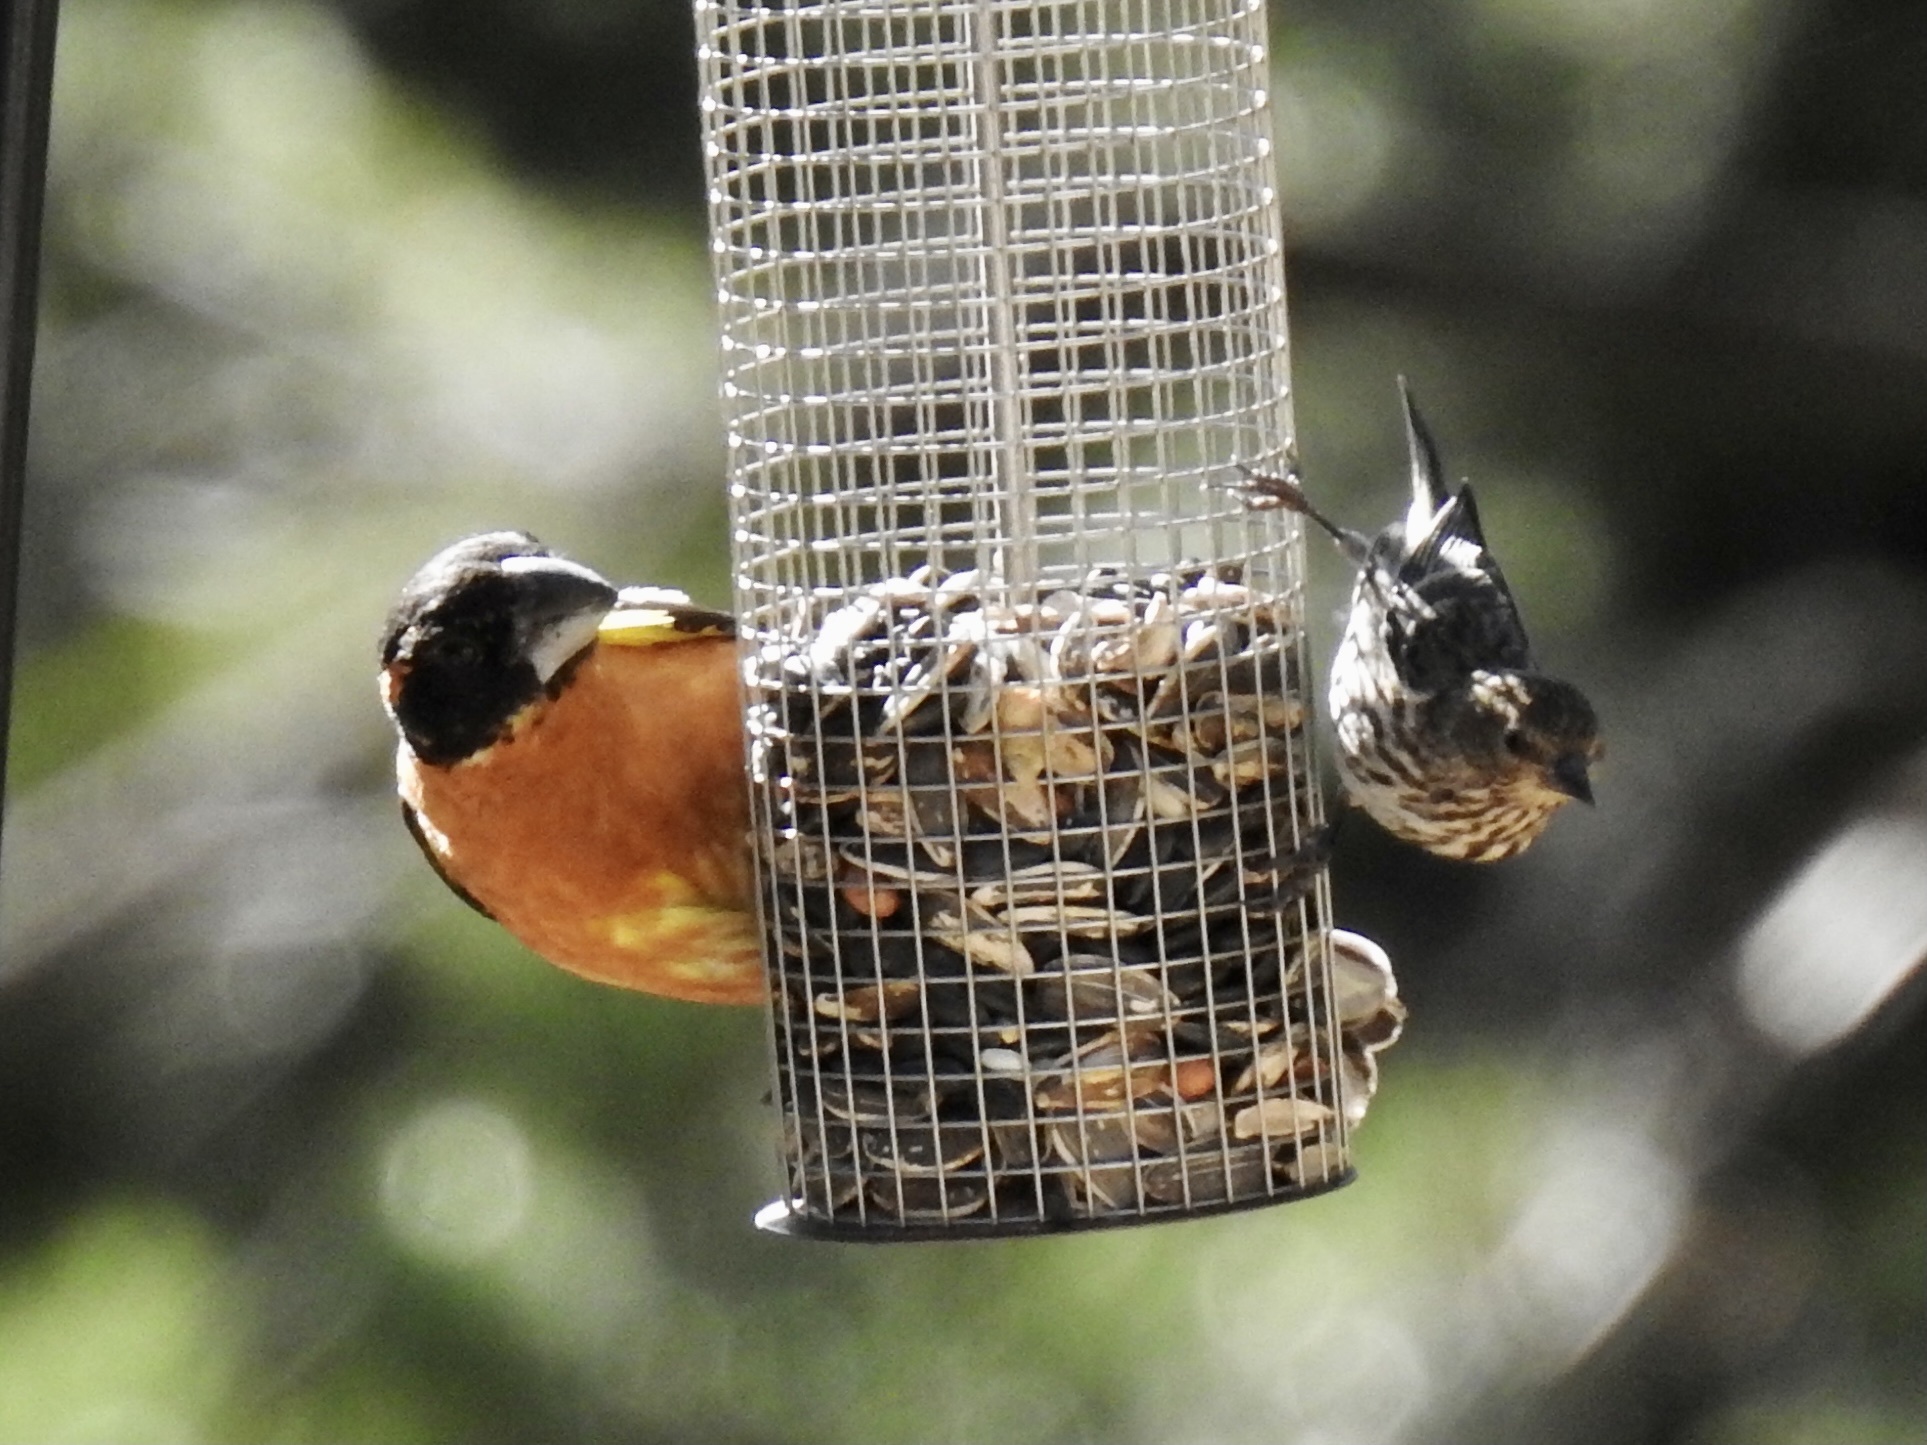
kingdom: Animalia
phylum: Chordata
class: Aves
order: Passeriformes
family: Cardinalidae
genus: Pheucticus
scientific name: Pheucticus melanocephalus
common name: Black-headed grosbeak
